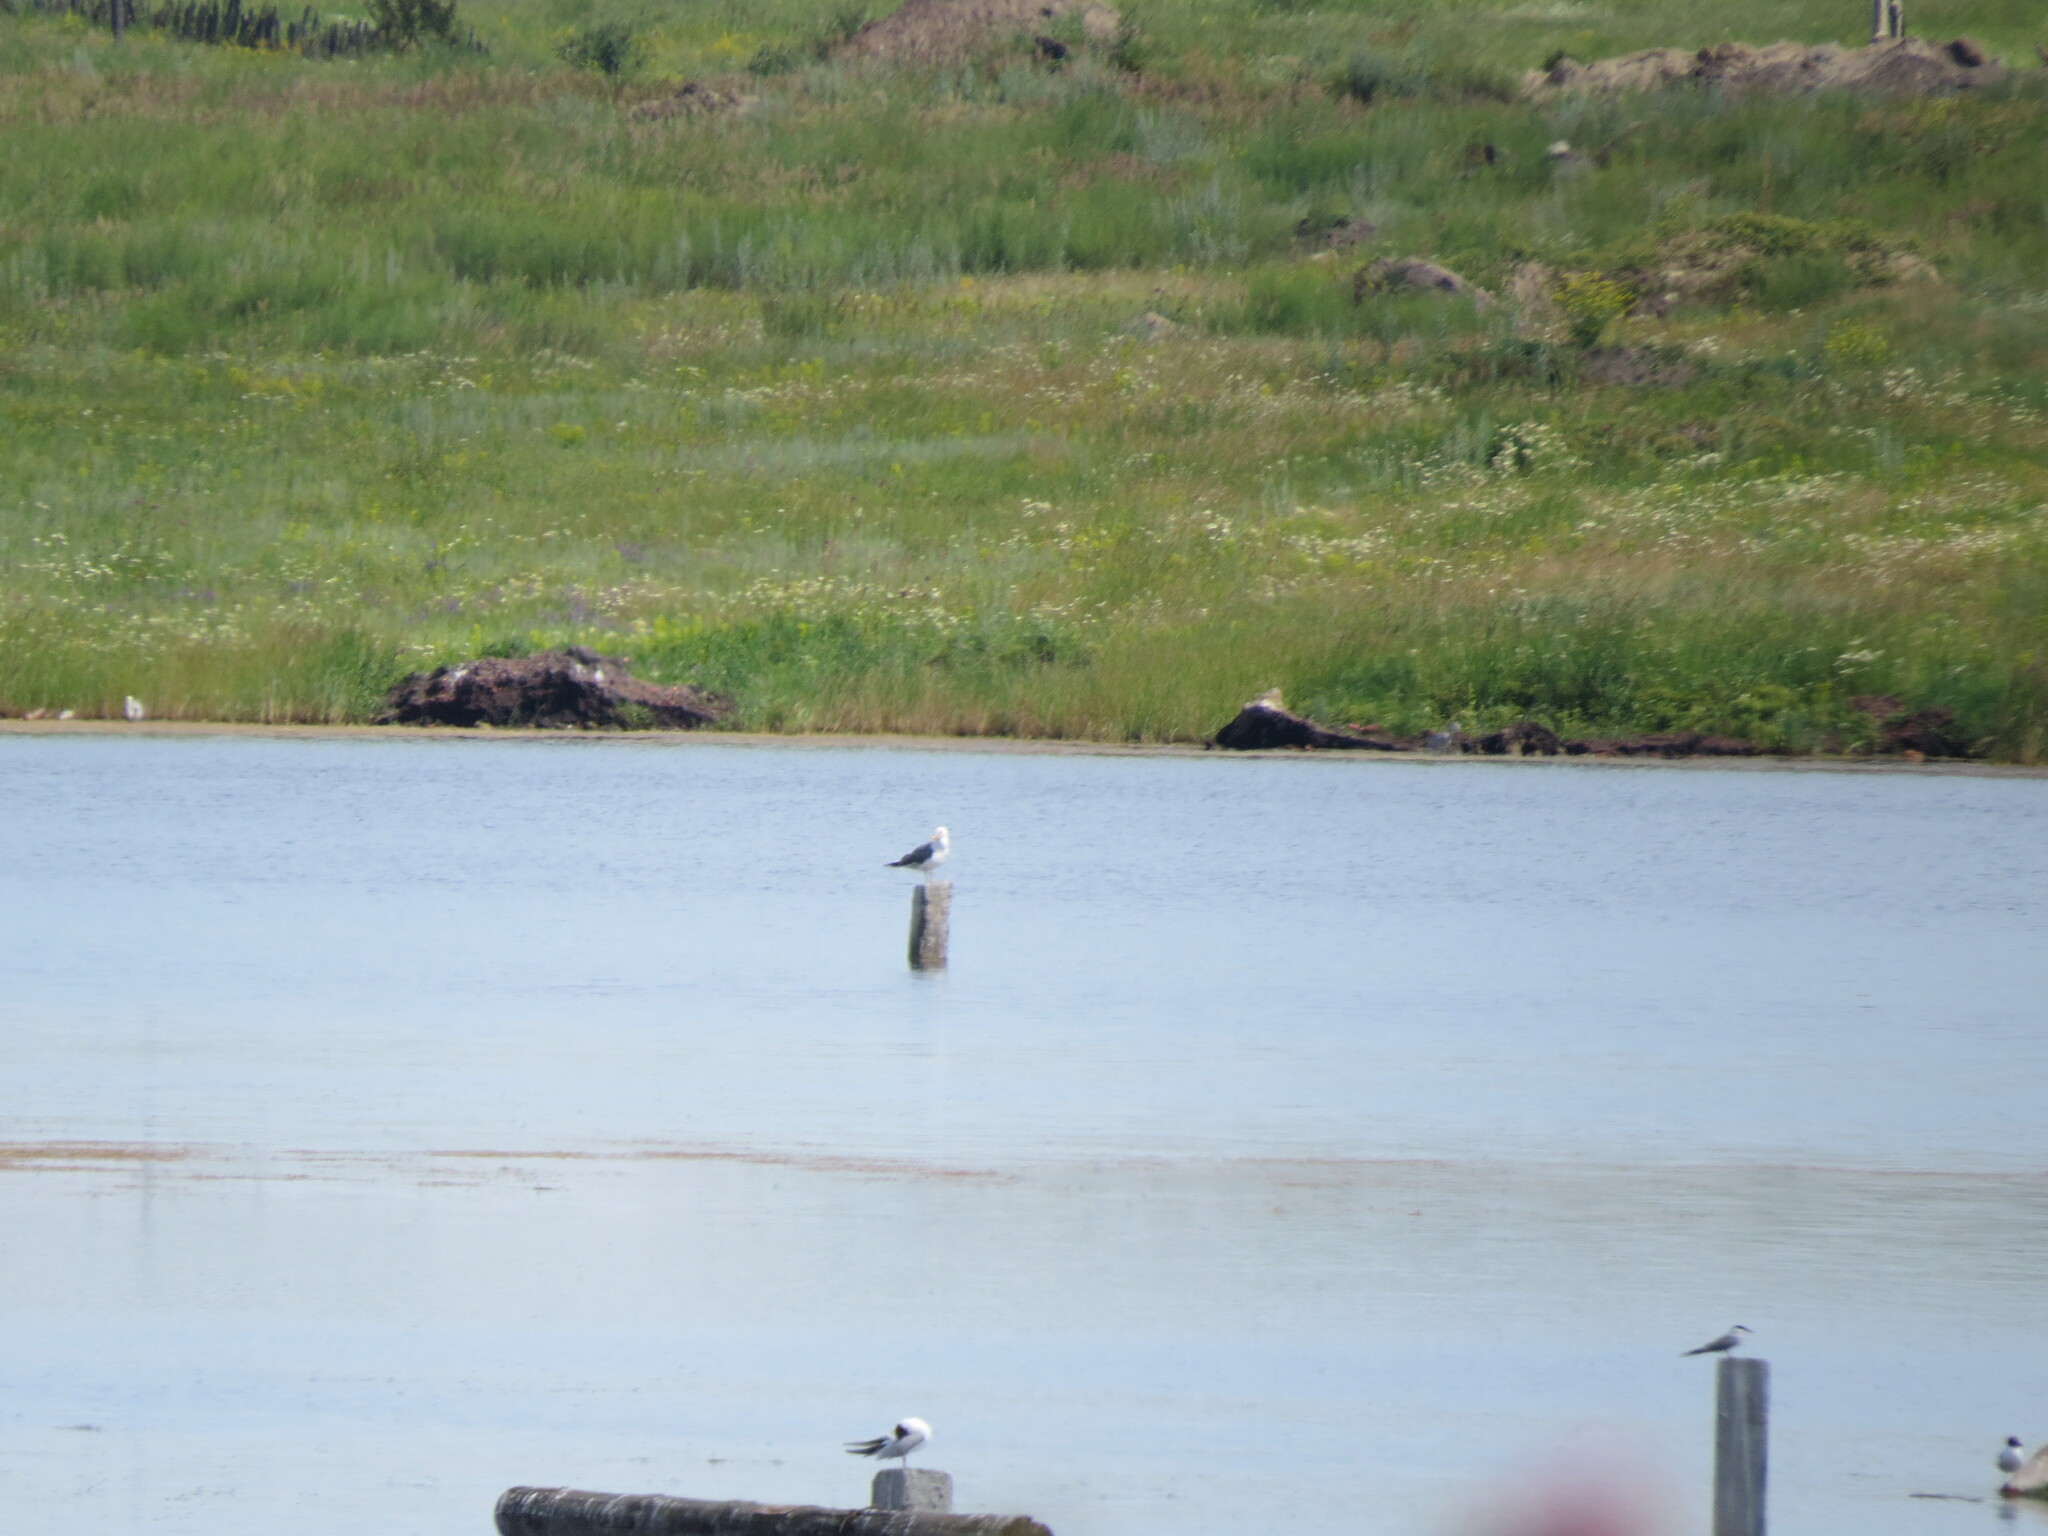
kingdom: Animalia
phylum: Chordata
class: Aves
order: Charadriiformes
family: Laridae
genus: Larus
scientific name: Larus fuscus
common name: Lesser black-backed gull
